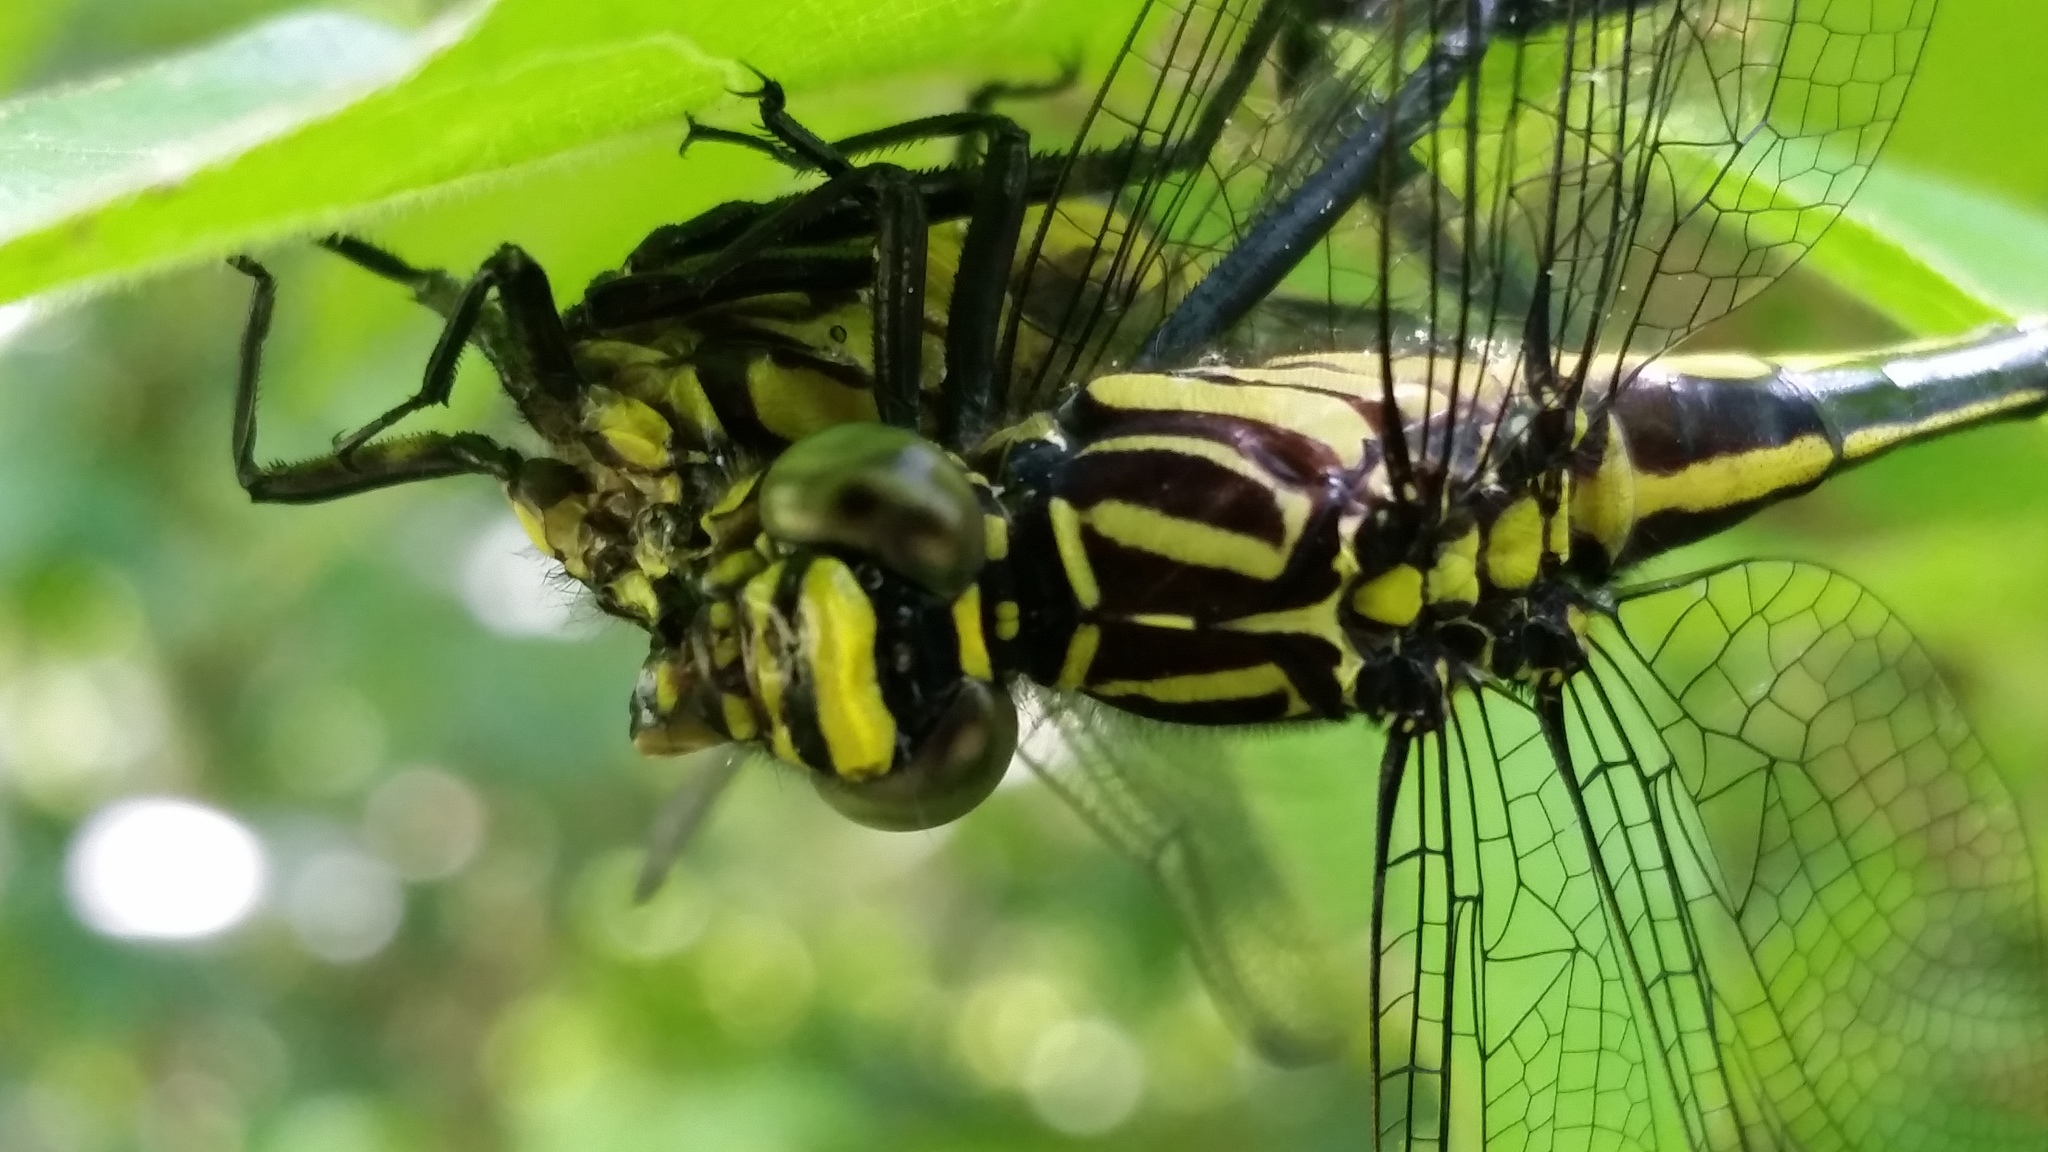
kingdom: Animalia
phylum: Arthropoda
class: Insecta
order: Odonata
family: Gomphidae
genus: Gomphurus
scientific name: Gomphurus vastus
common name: Cobra clubtail
